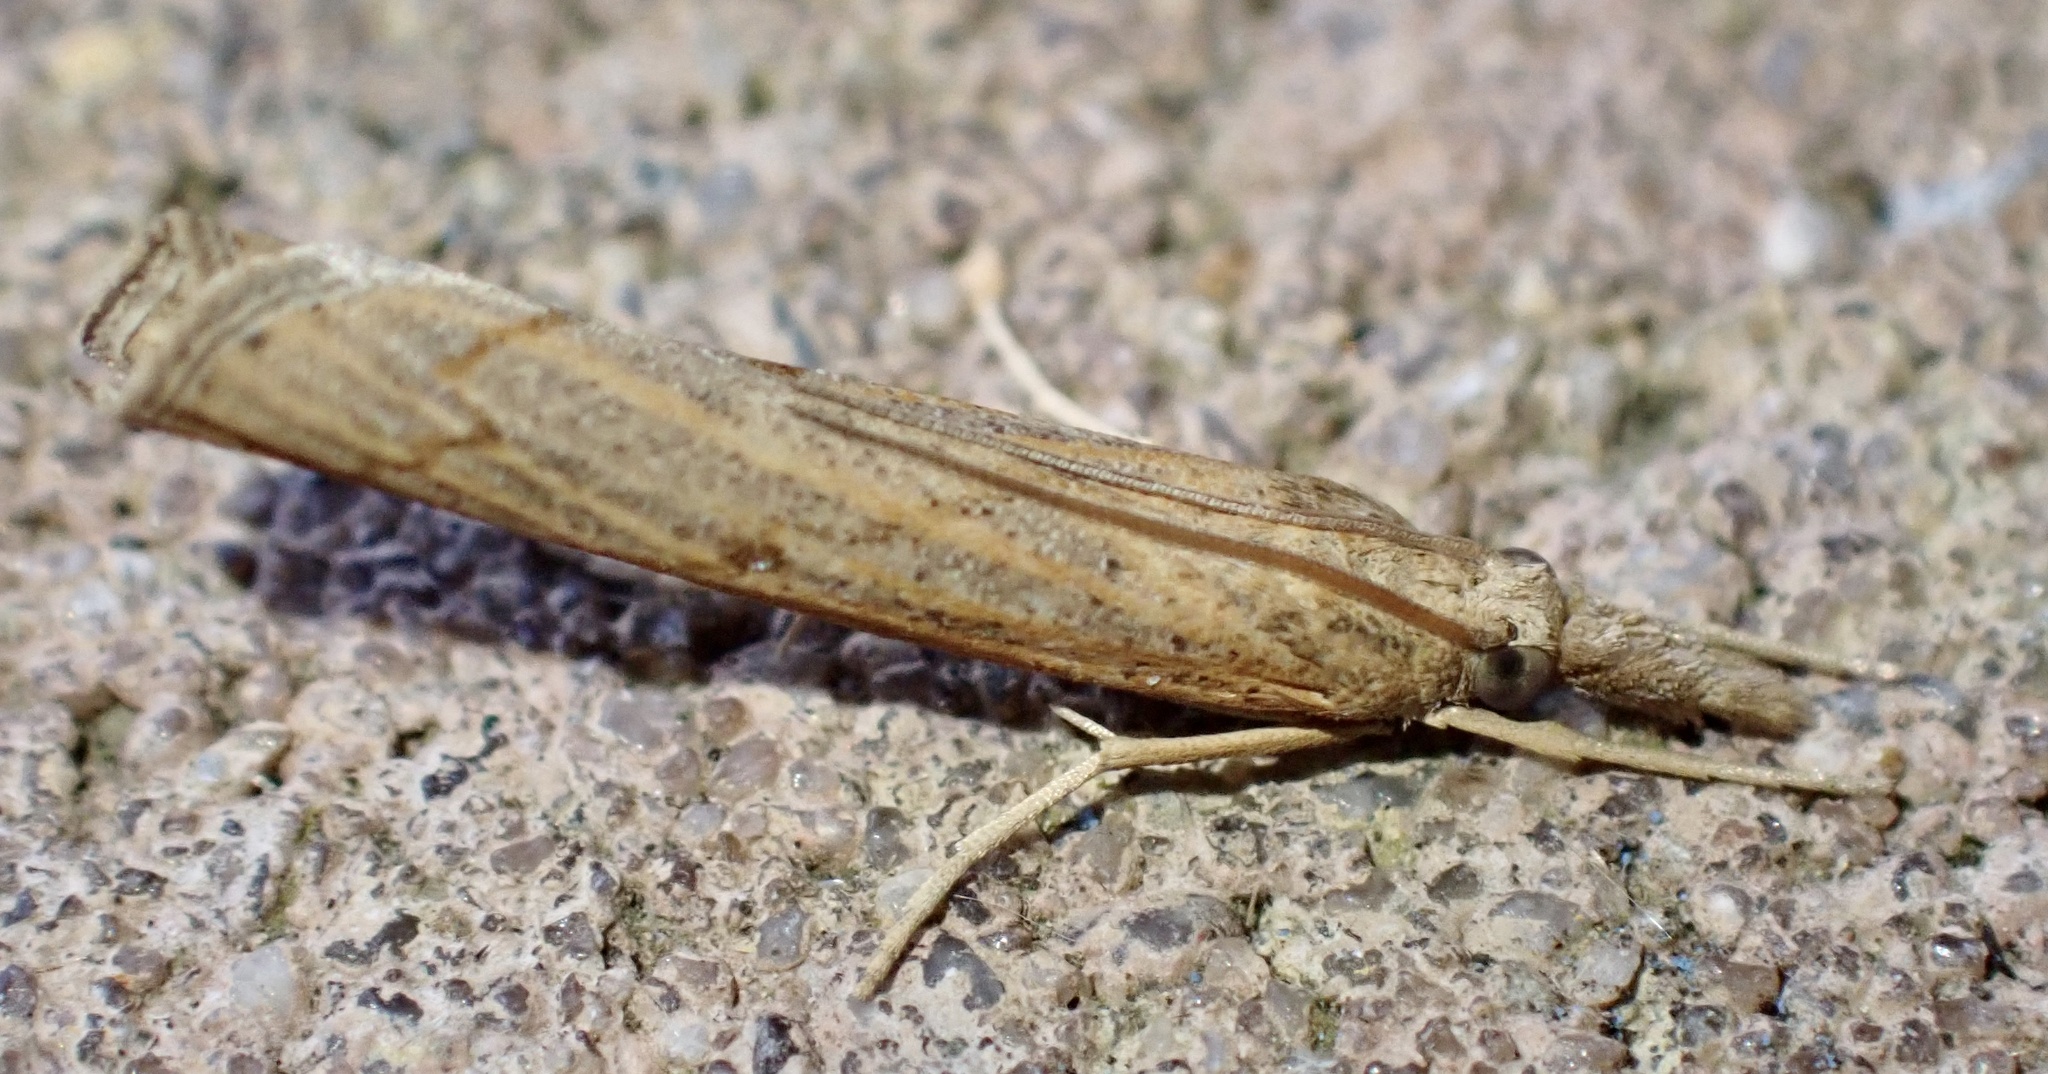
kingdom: Animalia
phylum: Arthropoda
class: Insecta
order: Lepidoptera
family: Crambidae
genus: Pediasia
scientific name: Pediasia contaminella
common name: Waste grass-veneer
